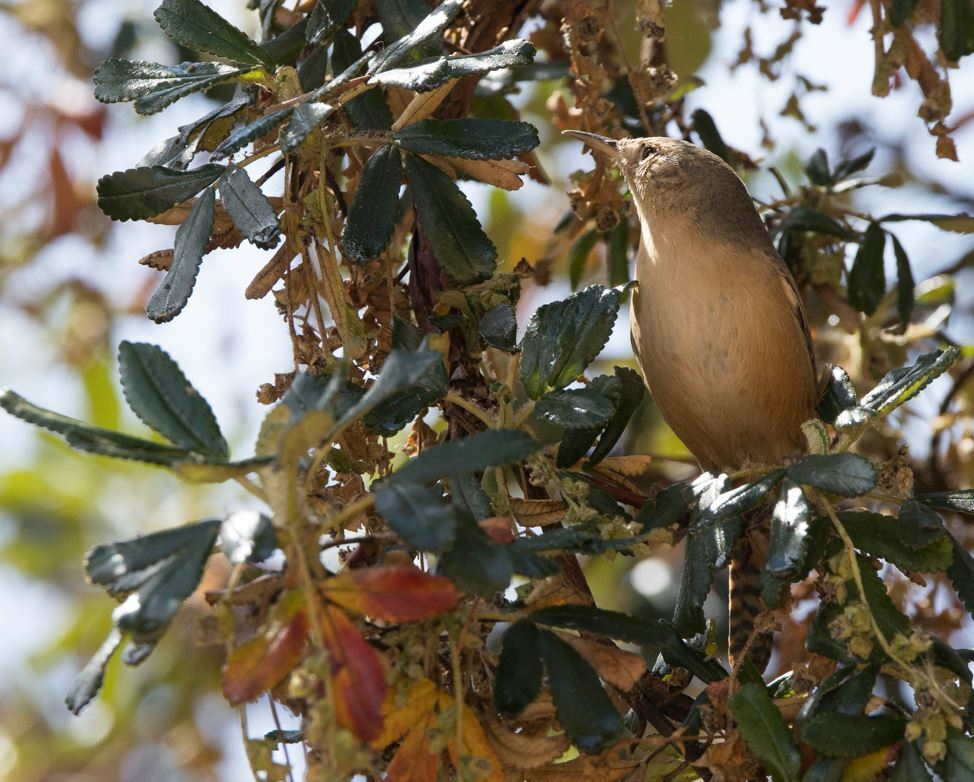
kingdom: Animalia
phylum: Chordata
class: Aves
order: Passeriformes
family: Troglodytidae
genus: Troglodytes
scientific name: Troglodytes aedon
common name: House wren
